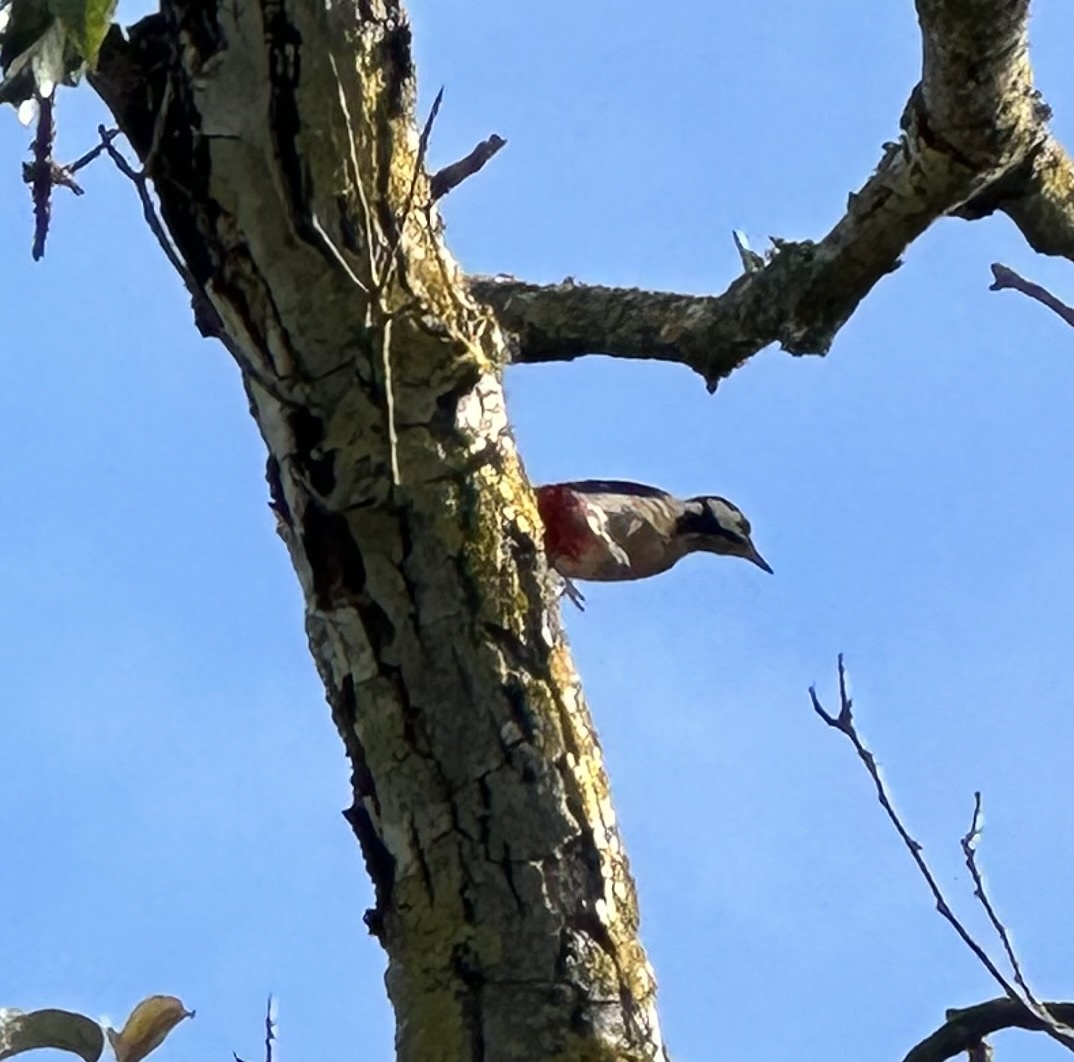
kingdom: Animalia
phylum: Chordata
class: Aves
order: Piciformes
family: Picidae
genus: Dendrocopos
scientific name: Dendrocopos major
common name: Great spotted woodpecker
